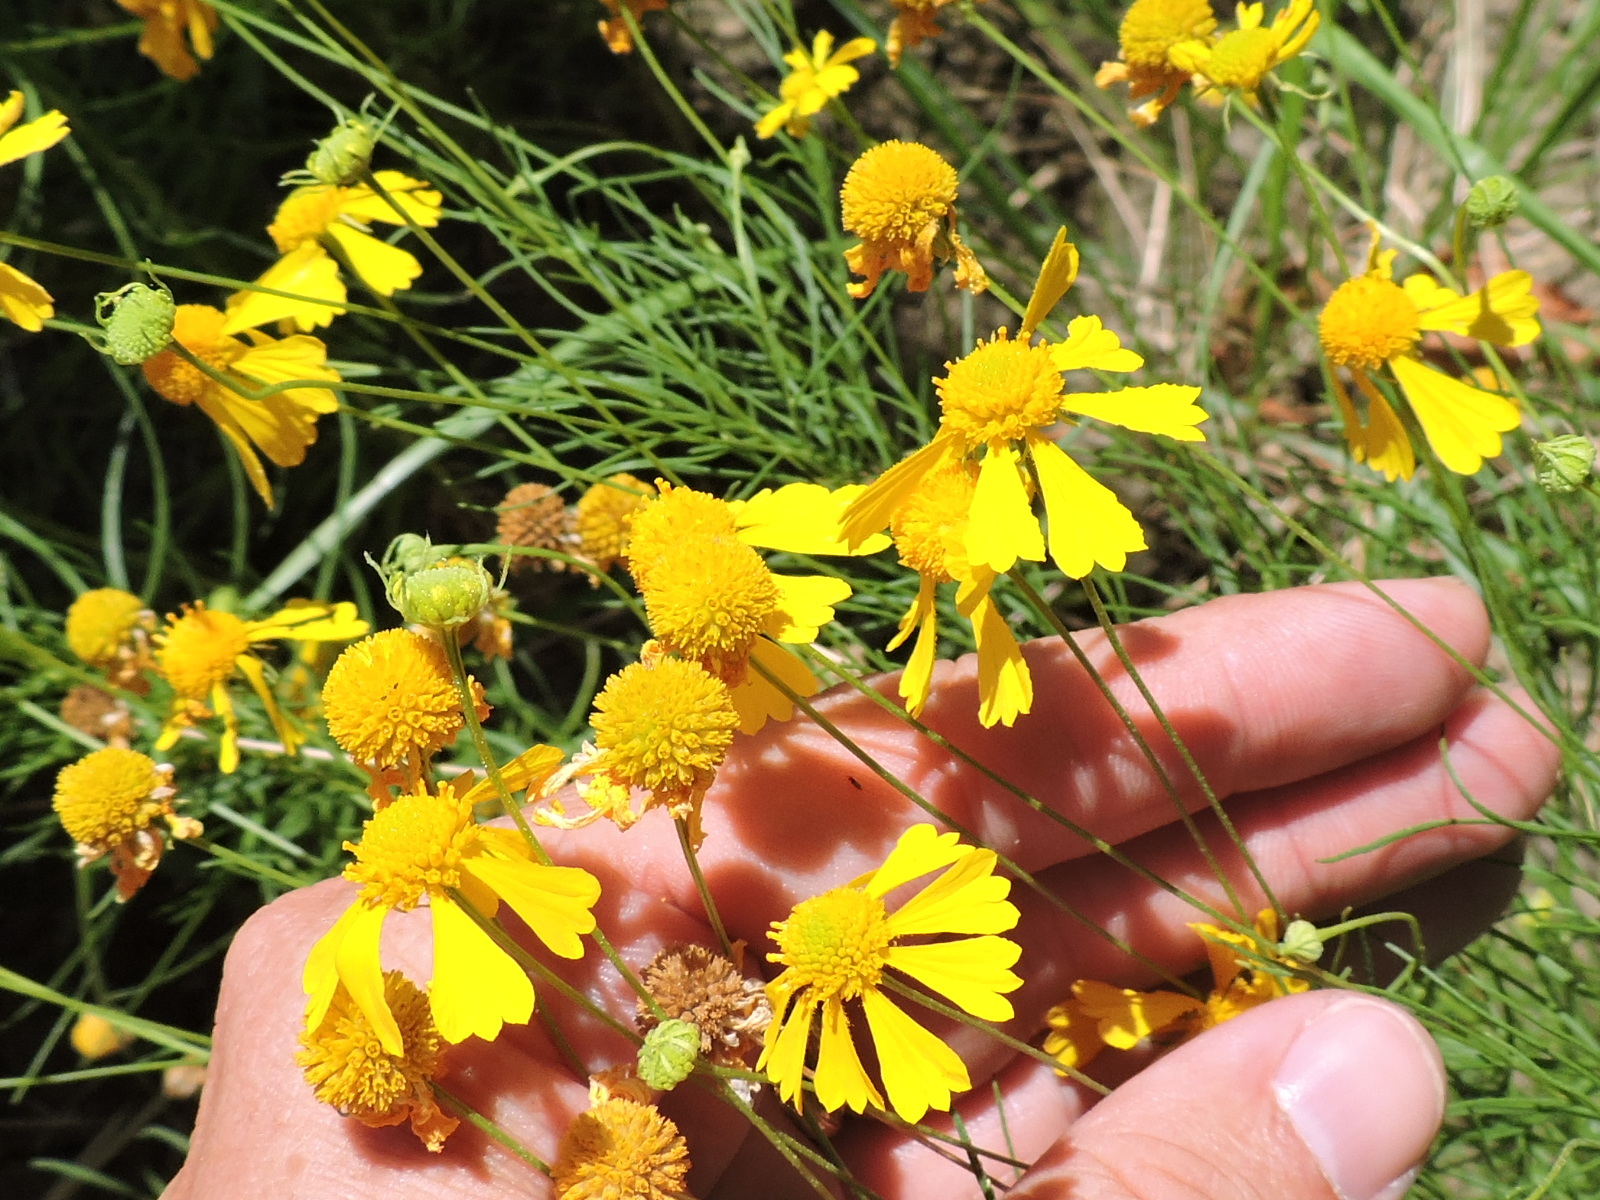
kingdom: Plantae
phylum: Tracheophyta
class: Magnoliopsida
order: Asterales
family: Asteraceae
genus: Helenium
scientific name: Helenium amarum
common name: Bitter sneezeweed
